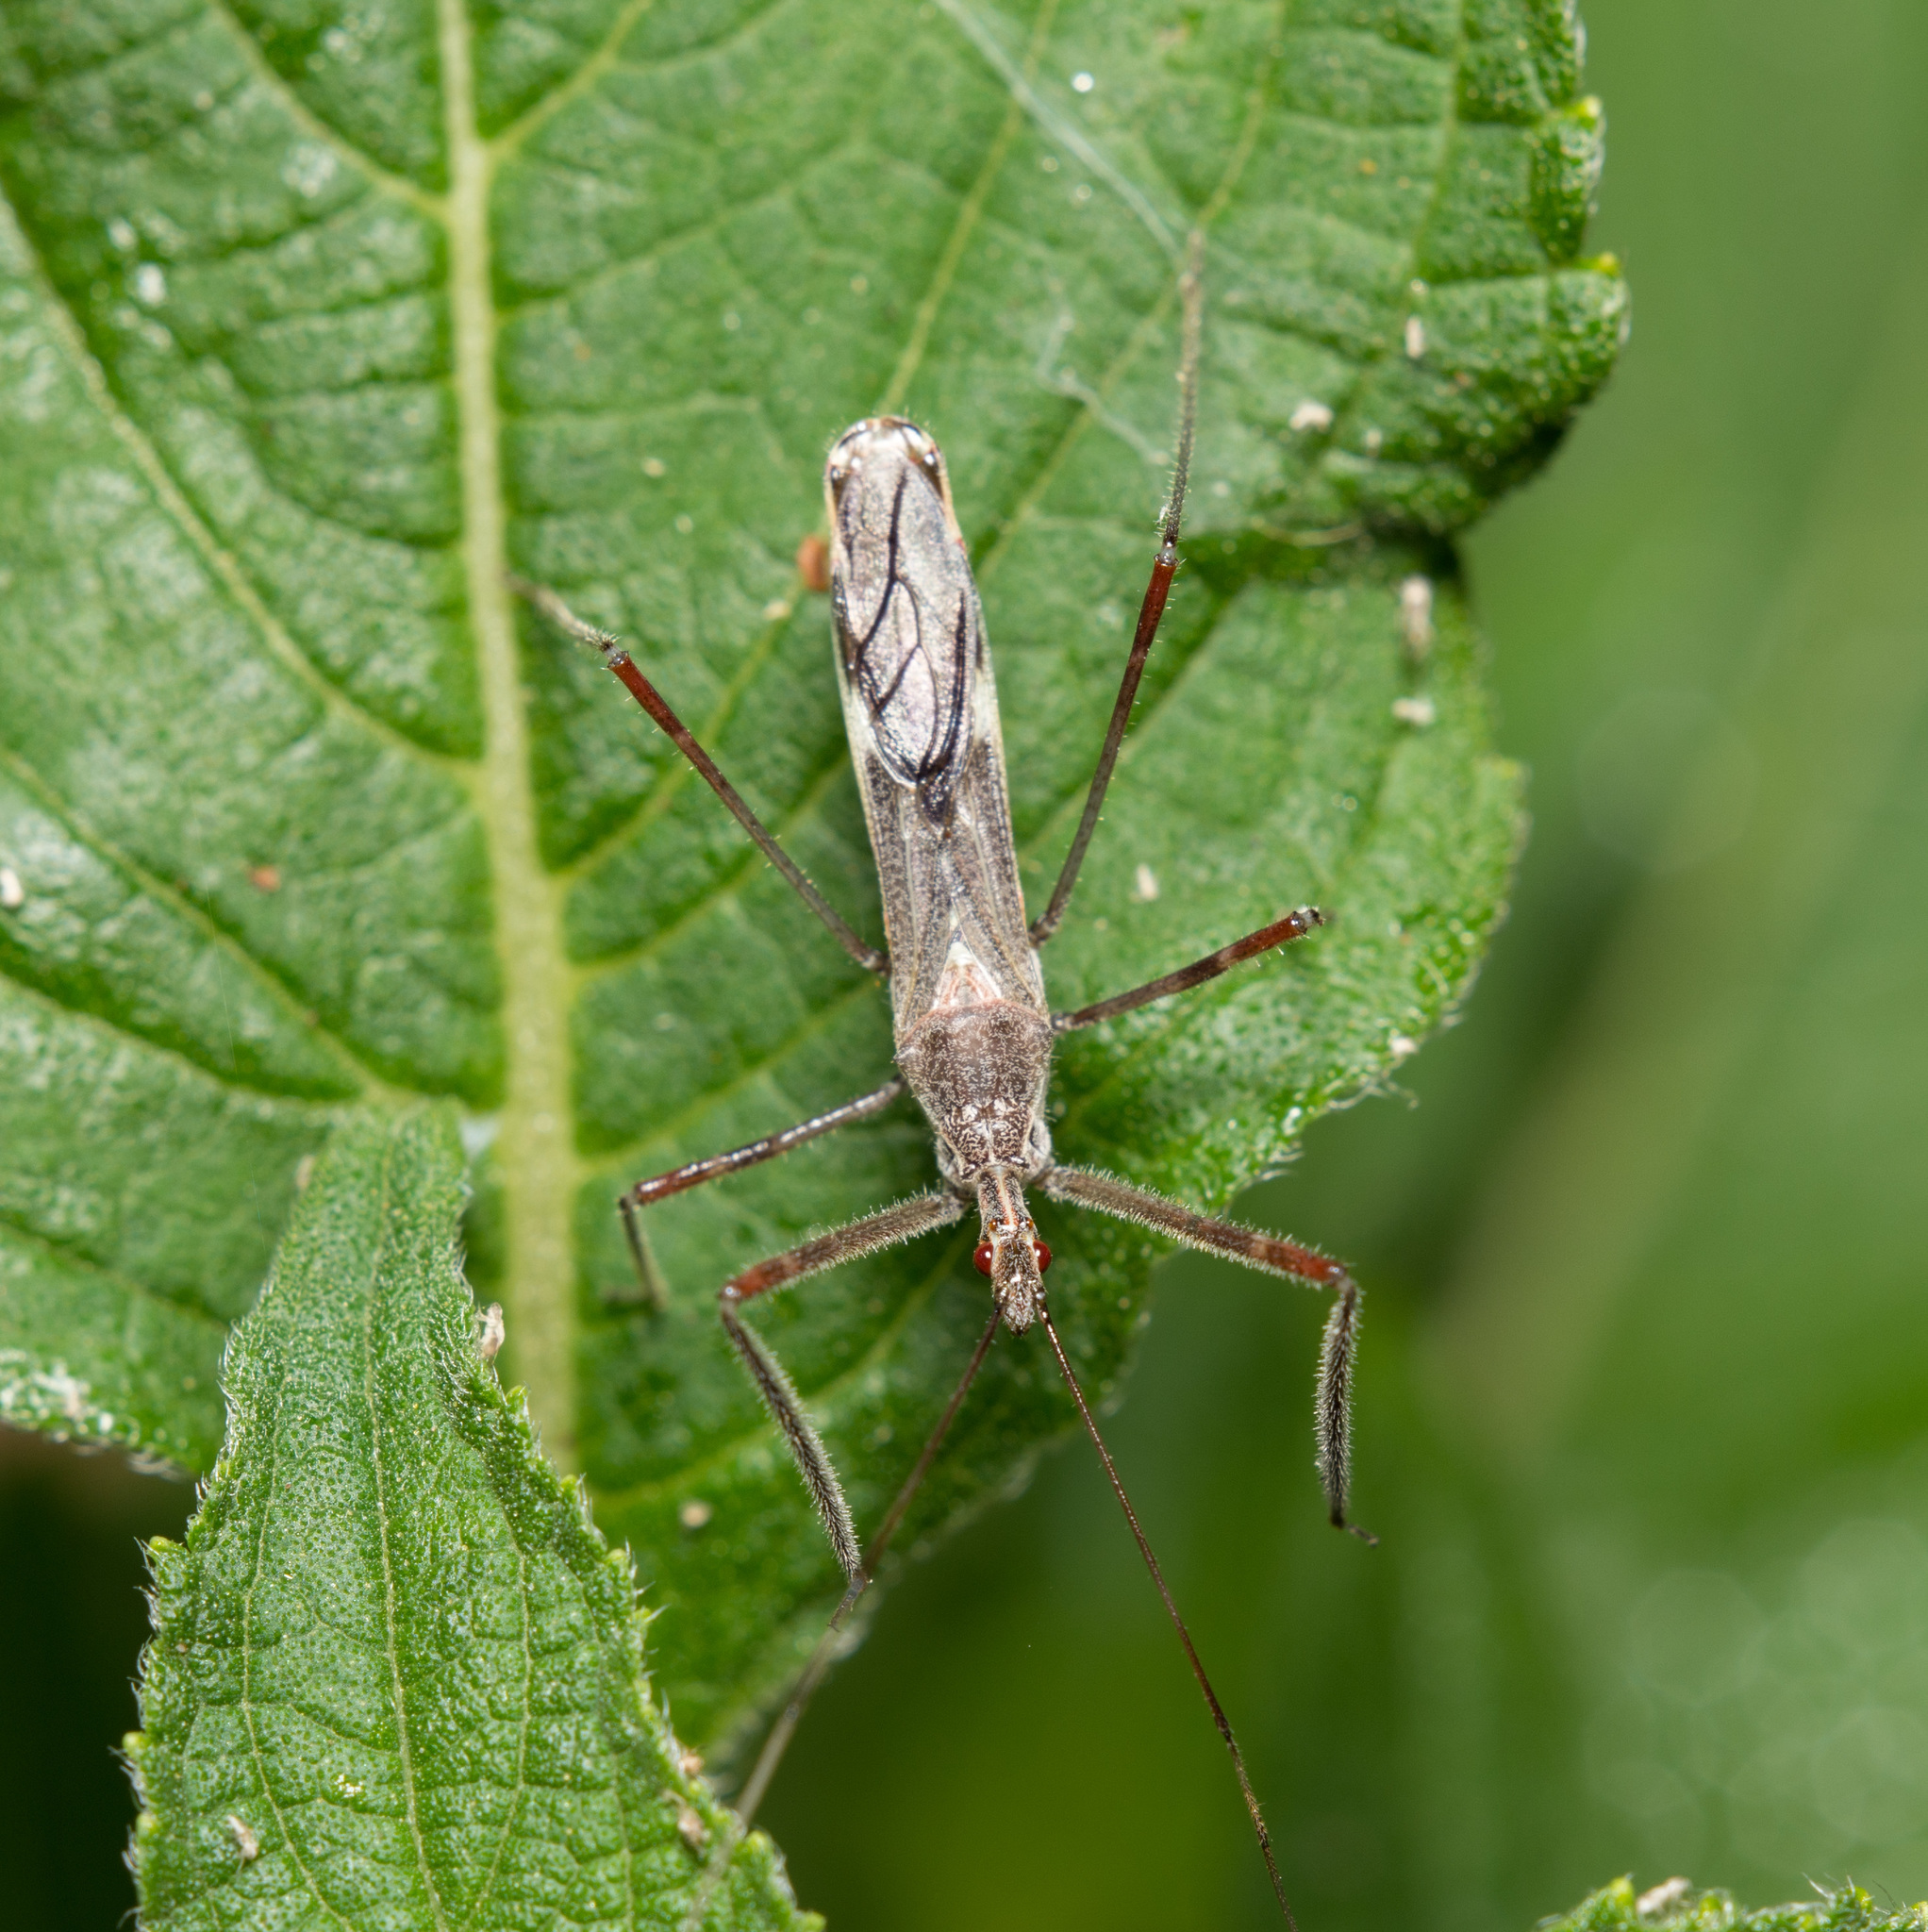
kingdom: Animalia
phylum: Arthropoda
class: Insecta
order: Hemiptera
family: Reduviidae
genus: Zelus
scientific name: Zelus tetracanthus
